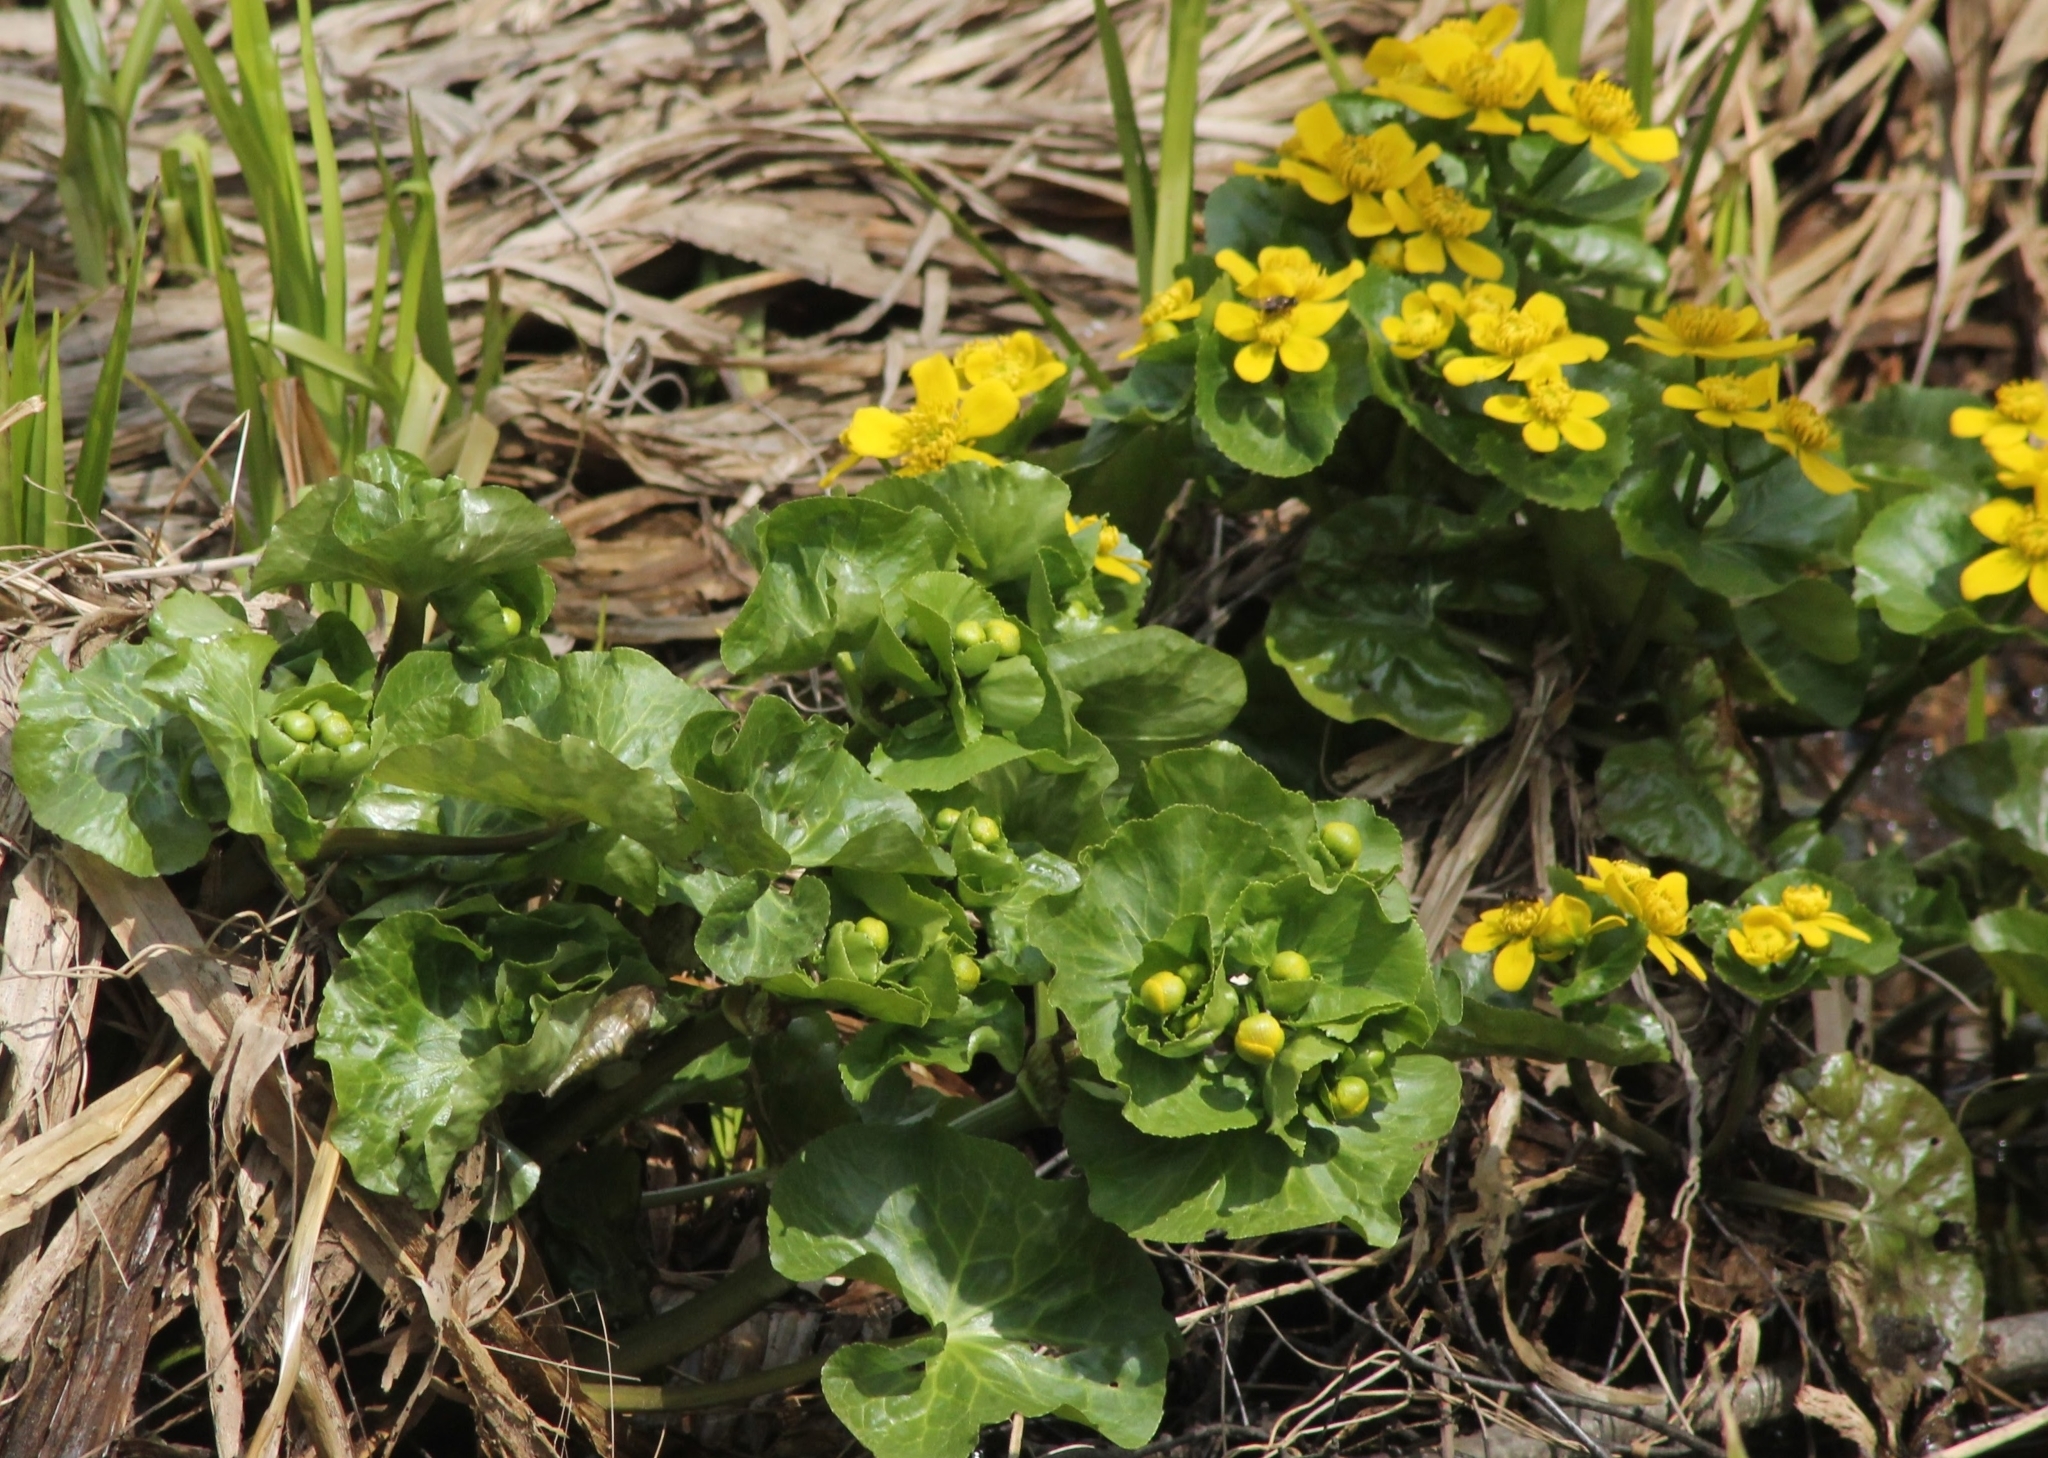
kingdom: Plantae
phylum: Tracheophyta
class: Magnoliopsida
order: Ranunculales
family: Ranunculaceae
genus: Caltha
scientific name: Caltha palustris
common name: Marsh marigold
